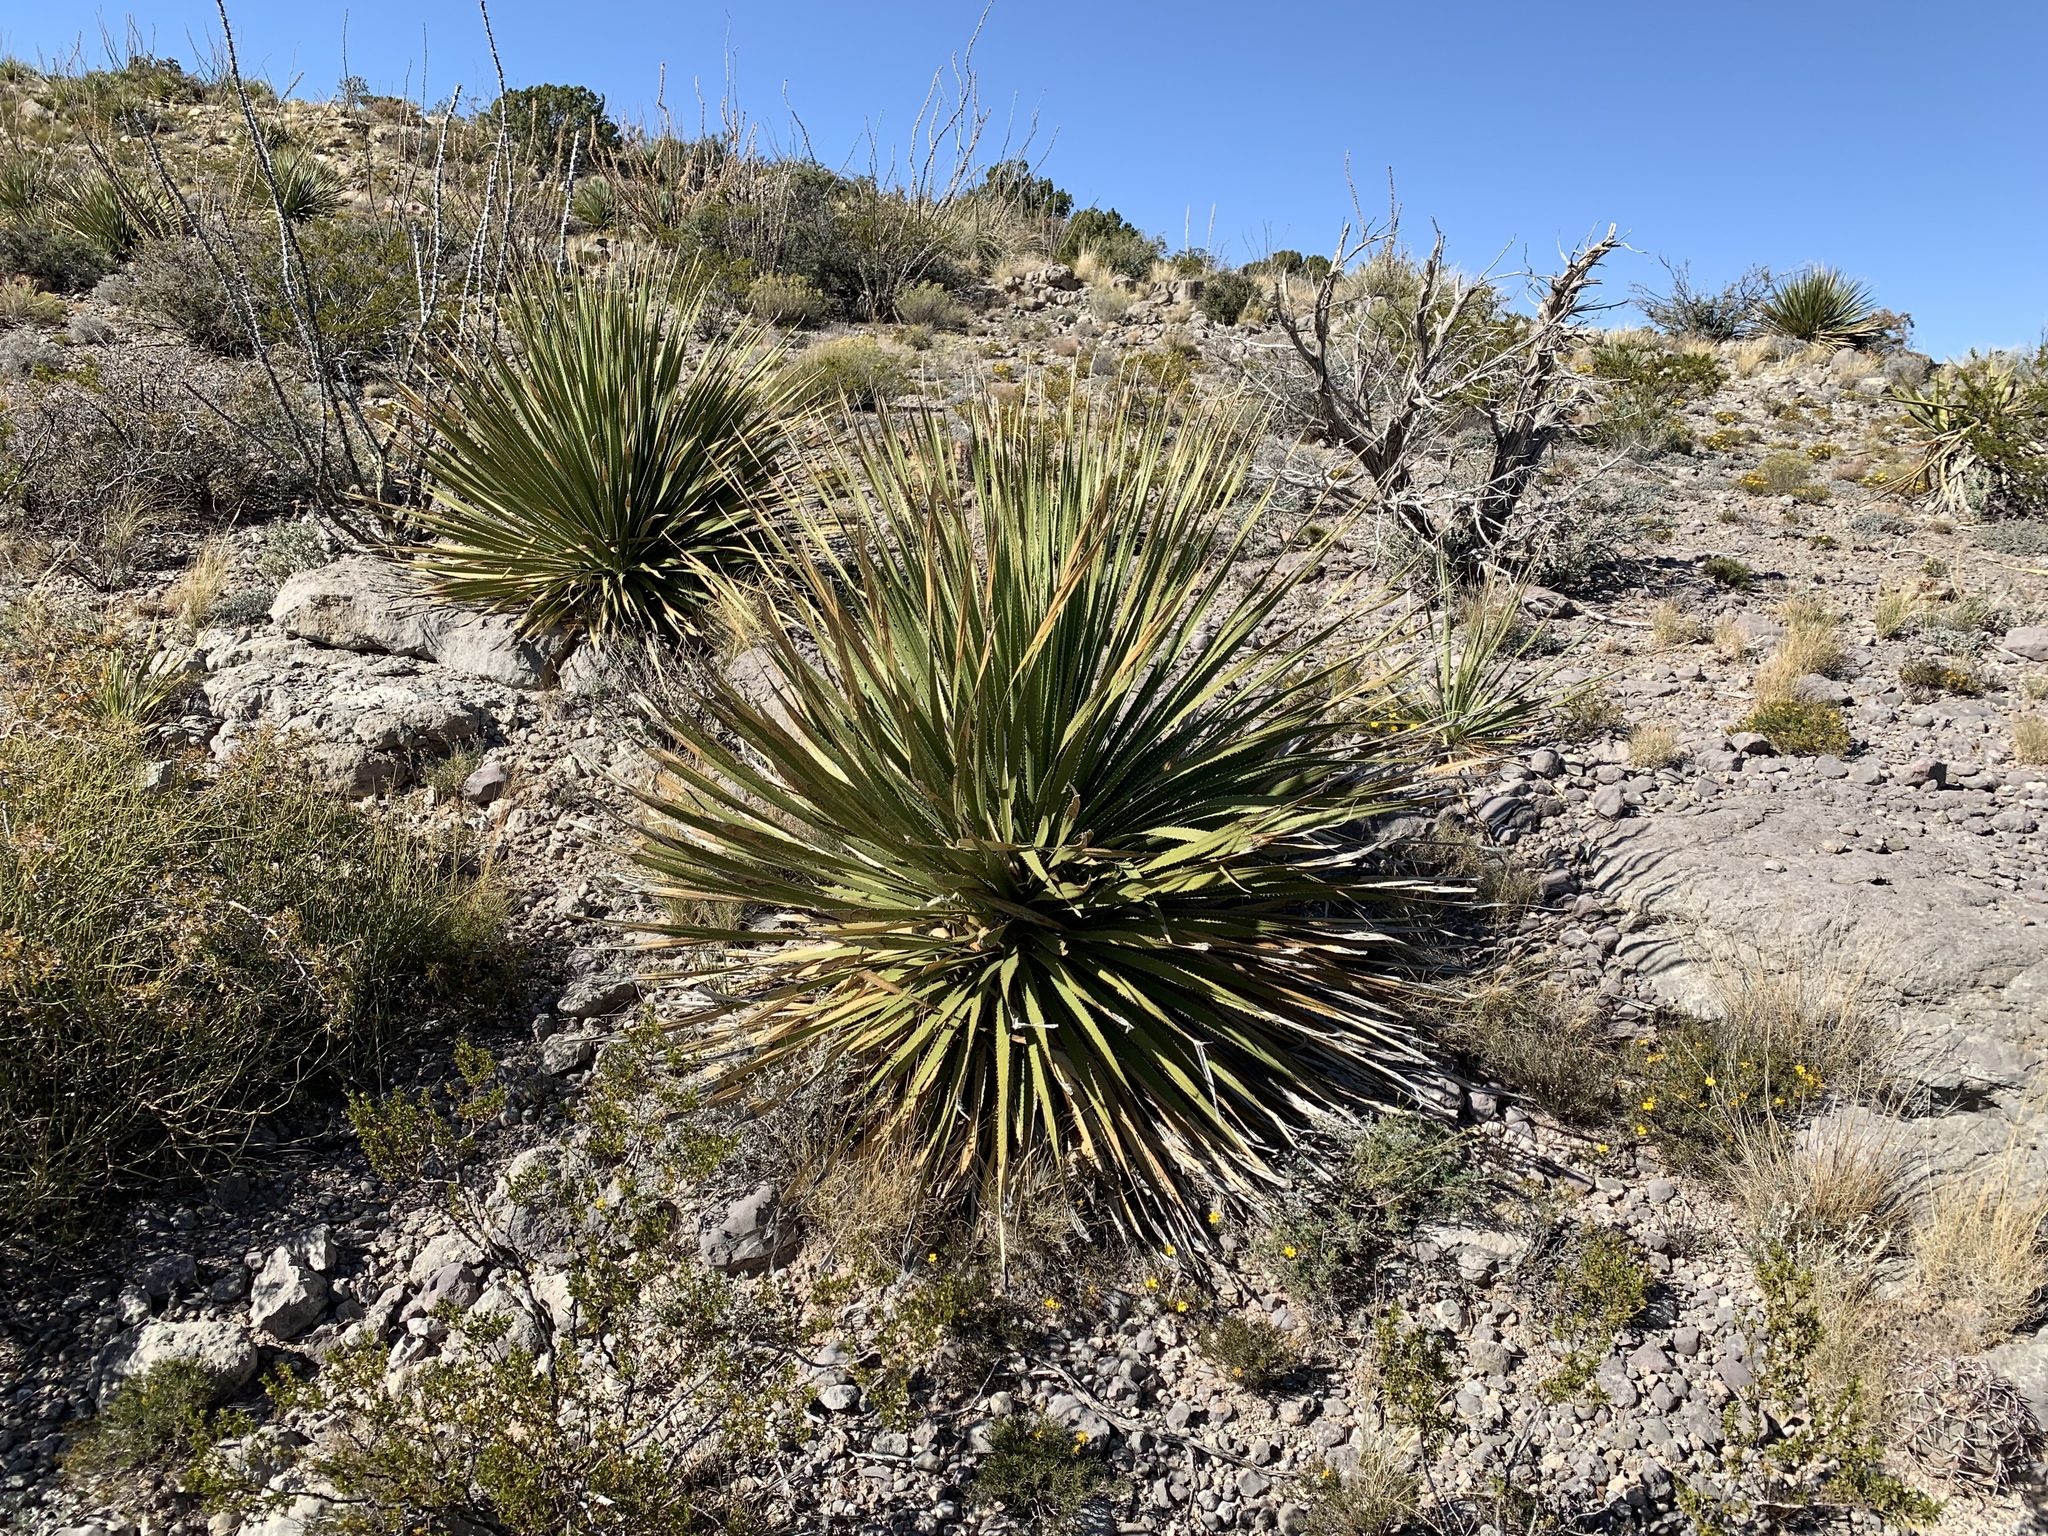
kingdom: Plantae
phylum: Tracheophyta
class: Liliopsida
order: Asparagales
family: Asparagaceae
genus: Dasylirion
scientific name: Dasylirion wheeleri
